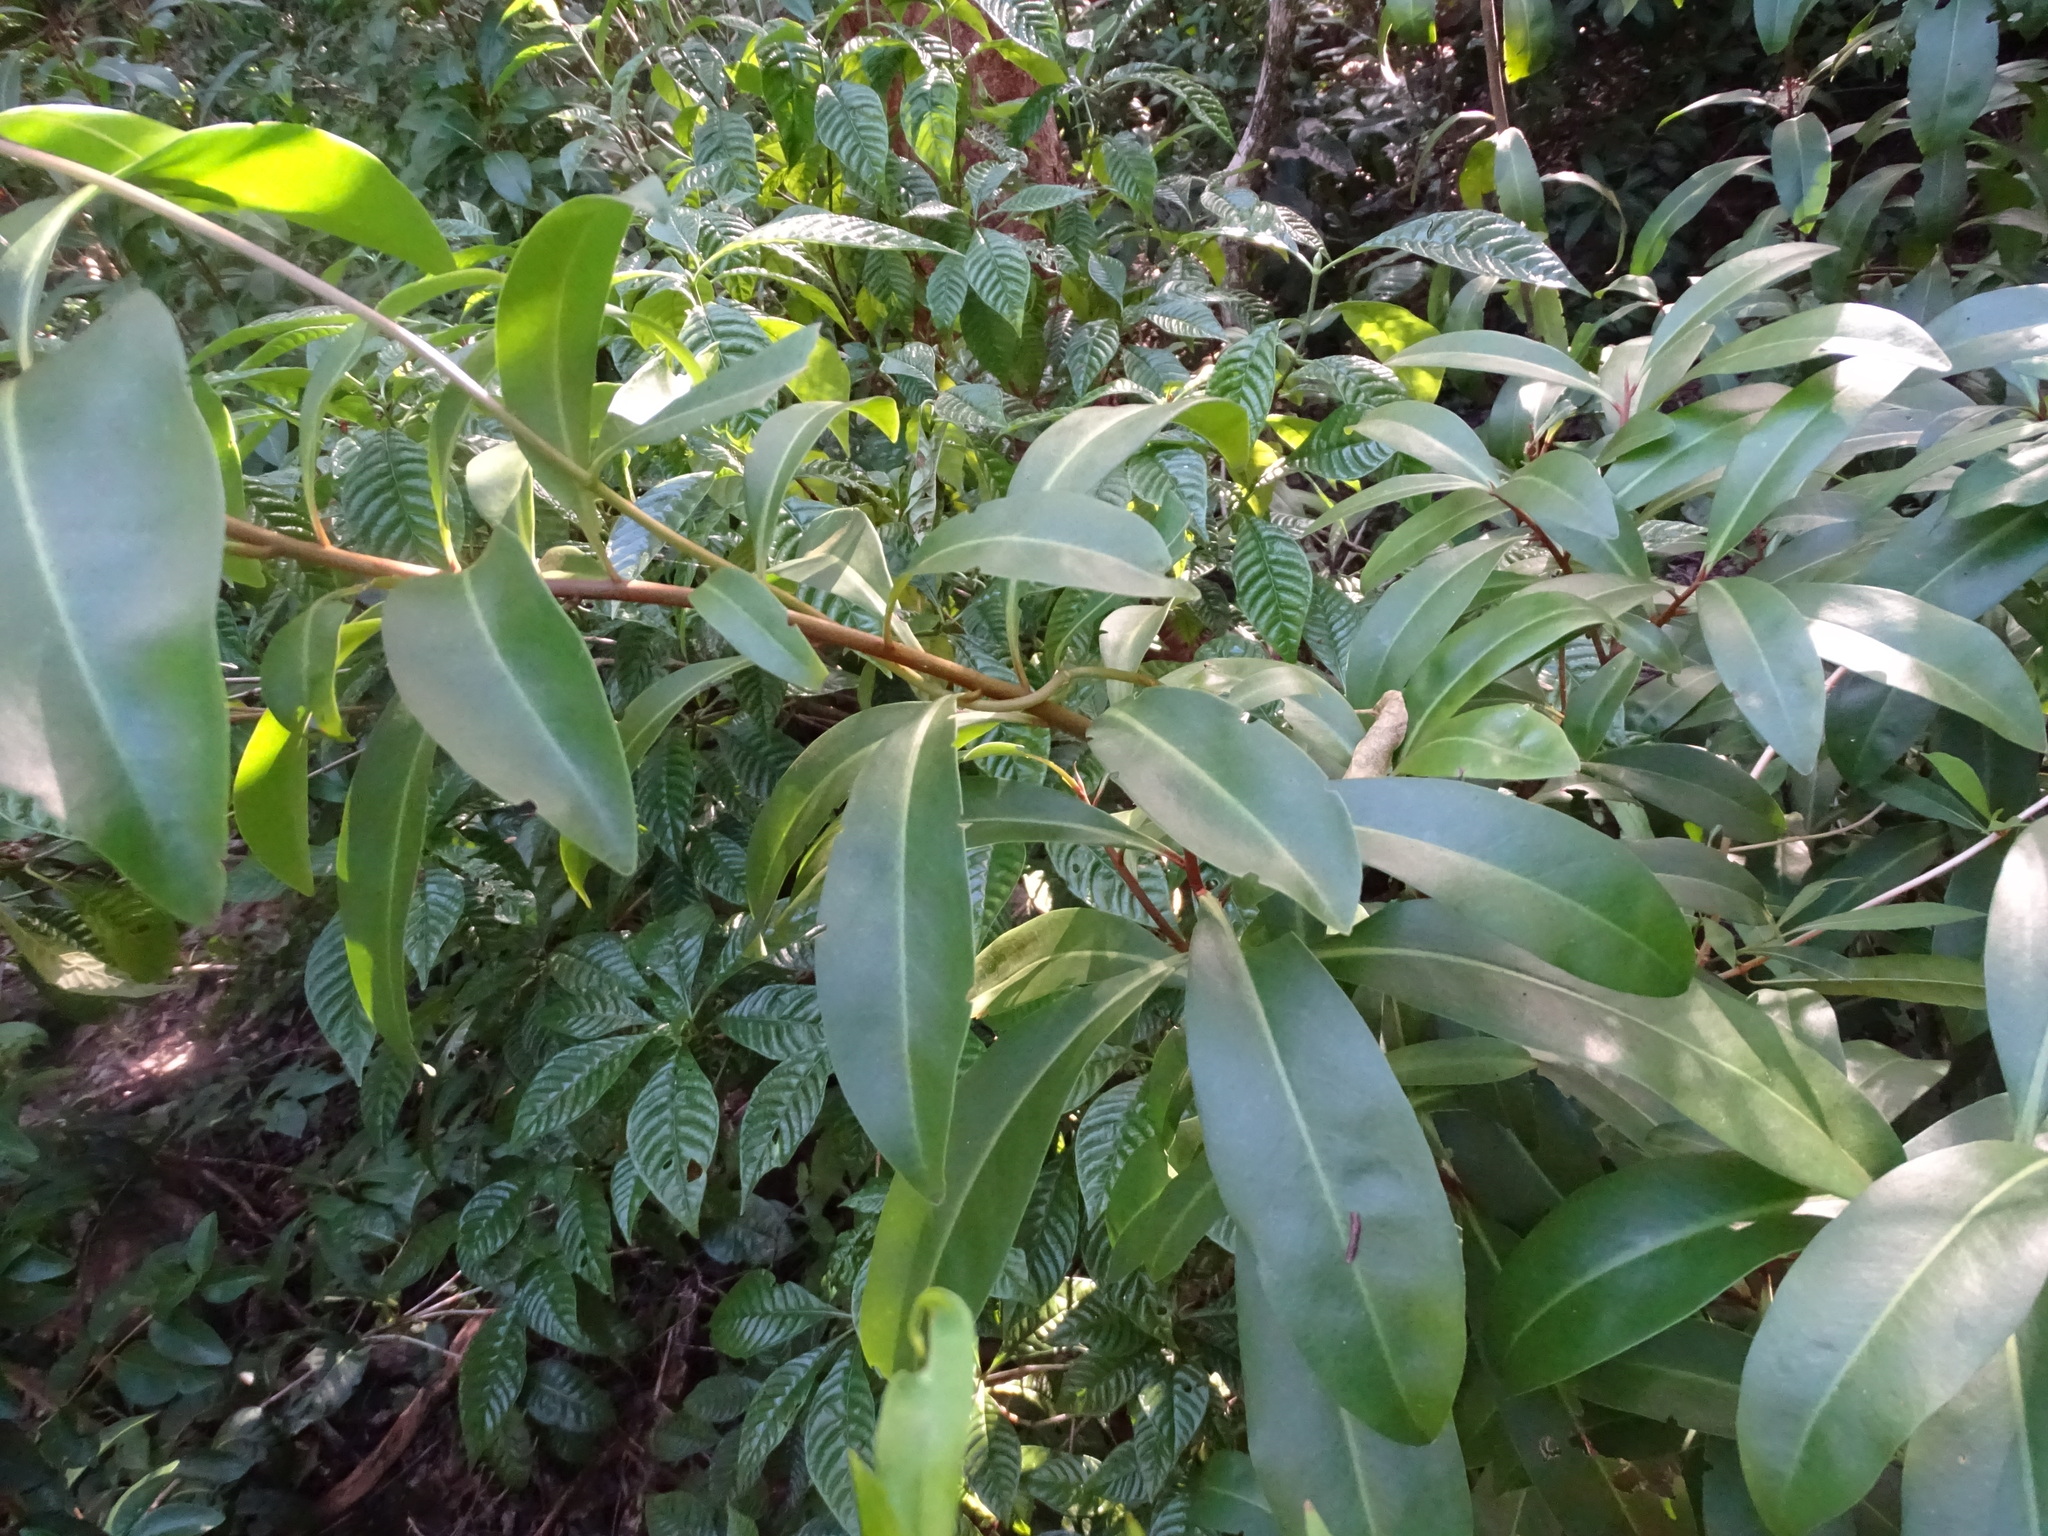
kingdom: Plantae
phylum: Tracheophyta
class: Magnoliopsida
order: Ericales
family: Primulaceae
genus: Ardisia
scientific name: Ardisia escallonioides
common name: Island marlberry
